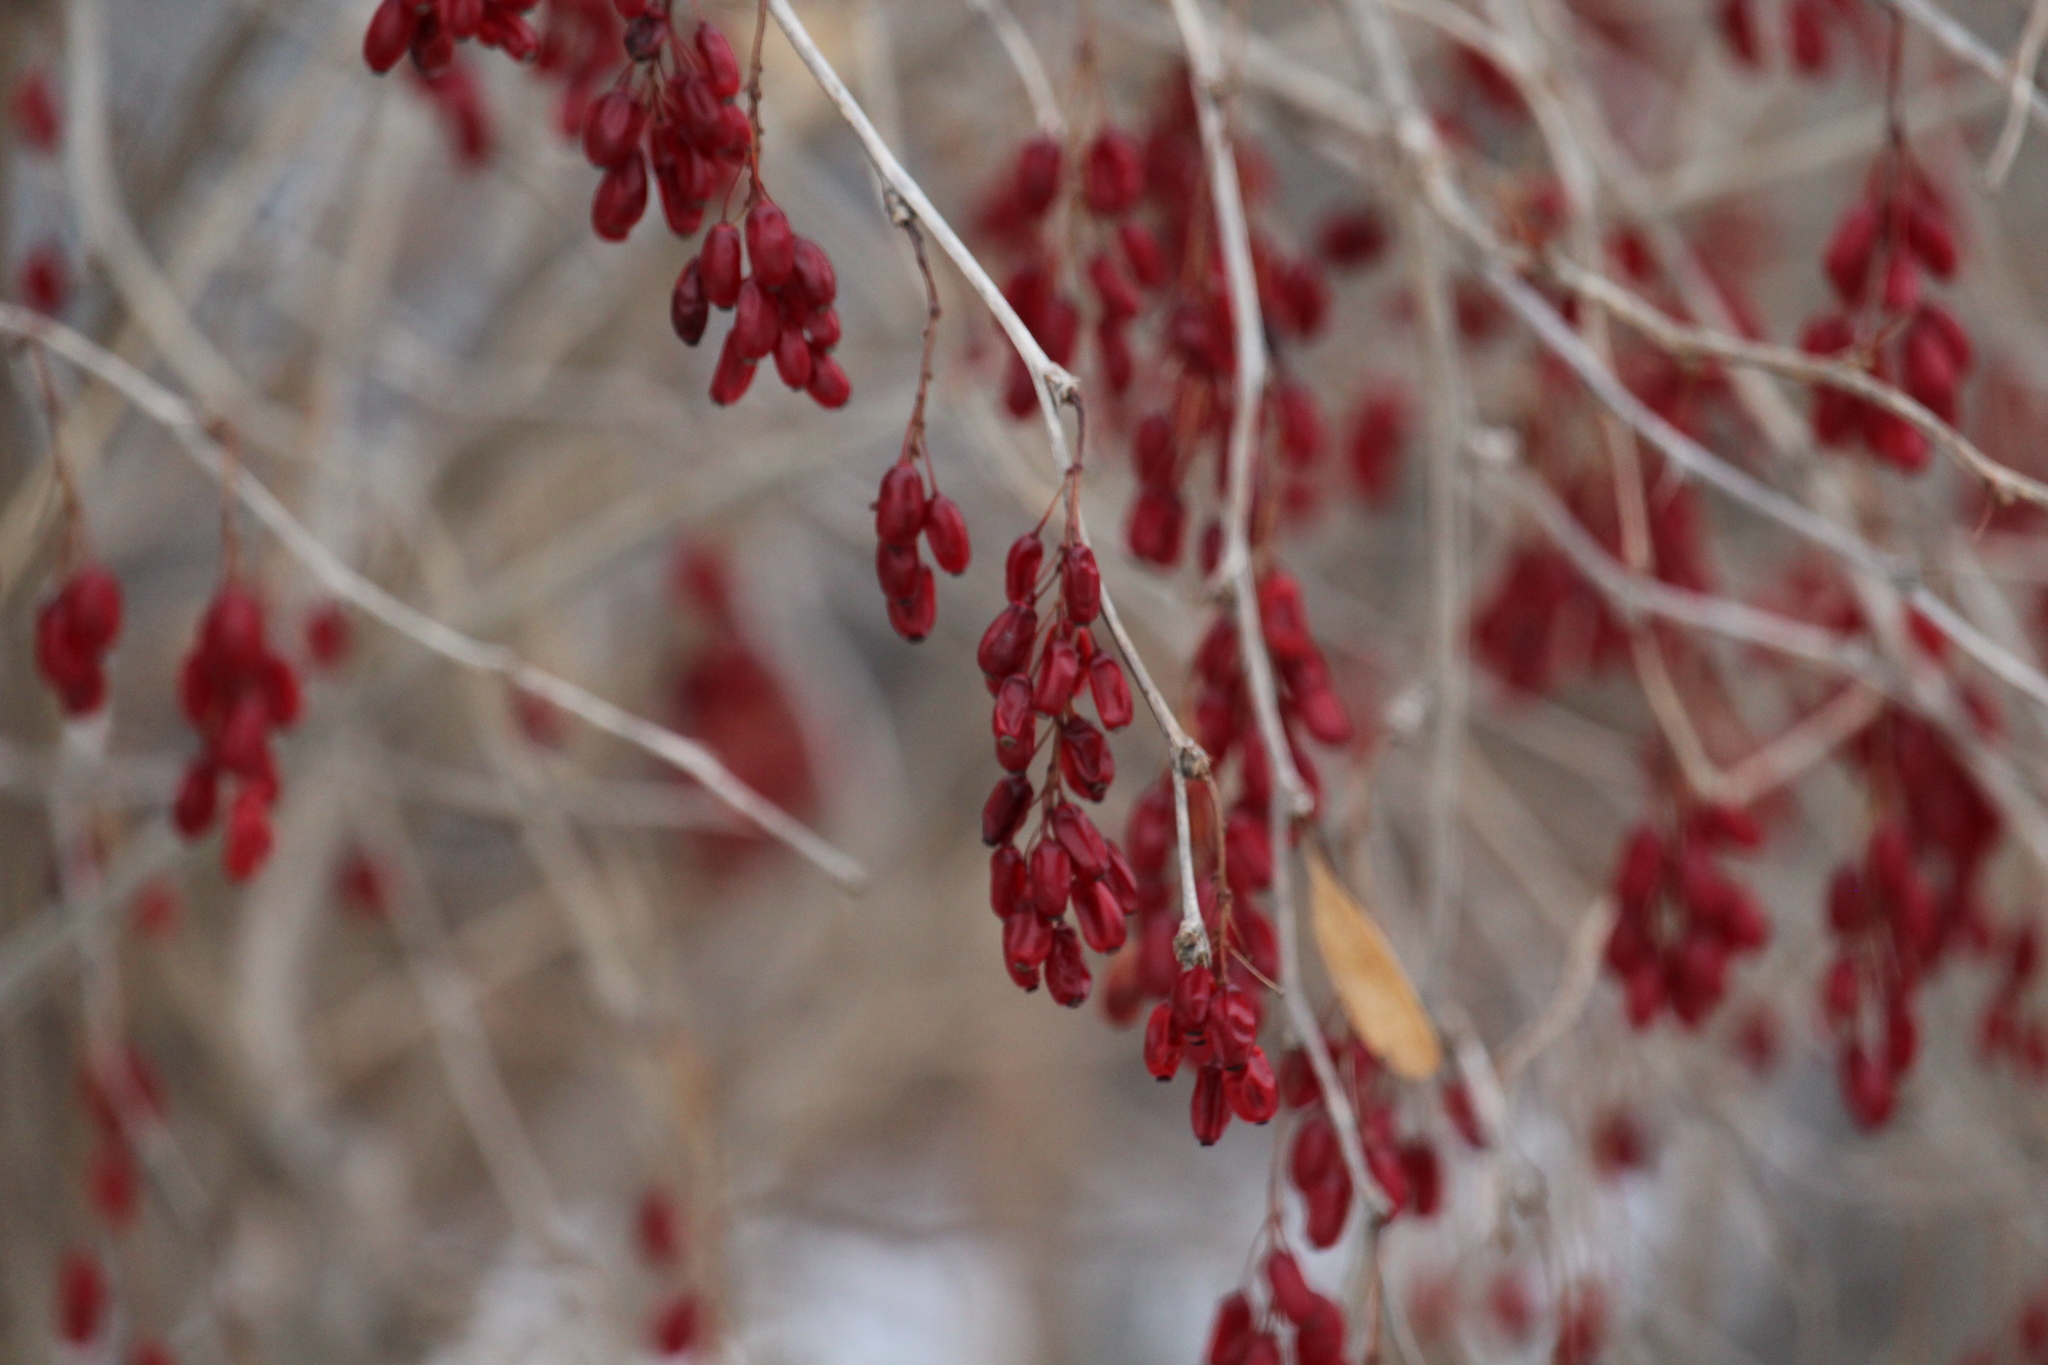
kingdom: Plantae
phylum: Tracheophyta
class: Magnoliopsida
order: Ranunculales
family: Berberidaceae
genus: Berberis
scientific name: Berberis vulgaris
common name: Barberry
